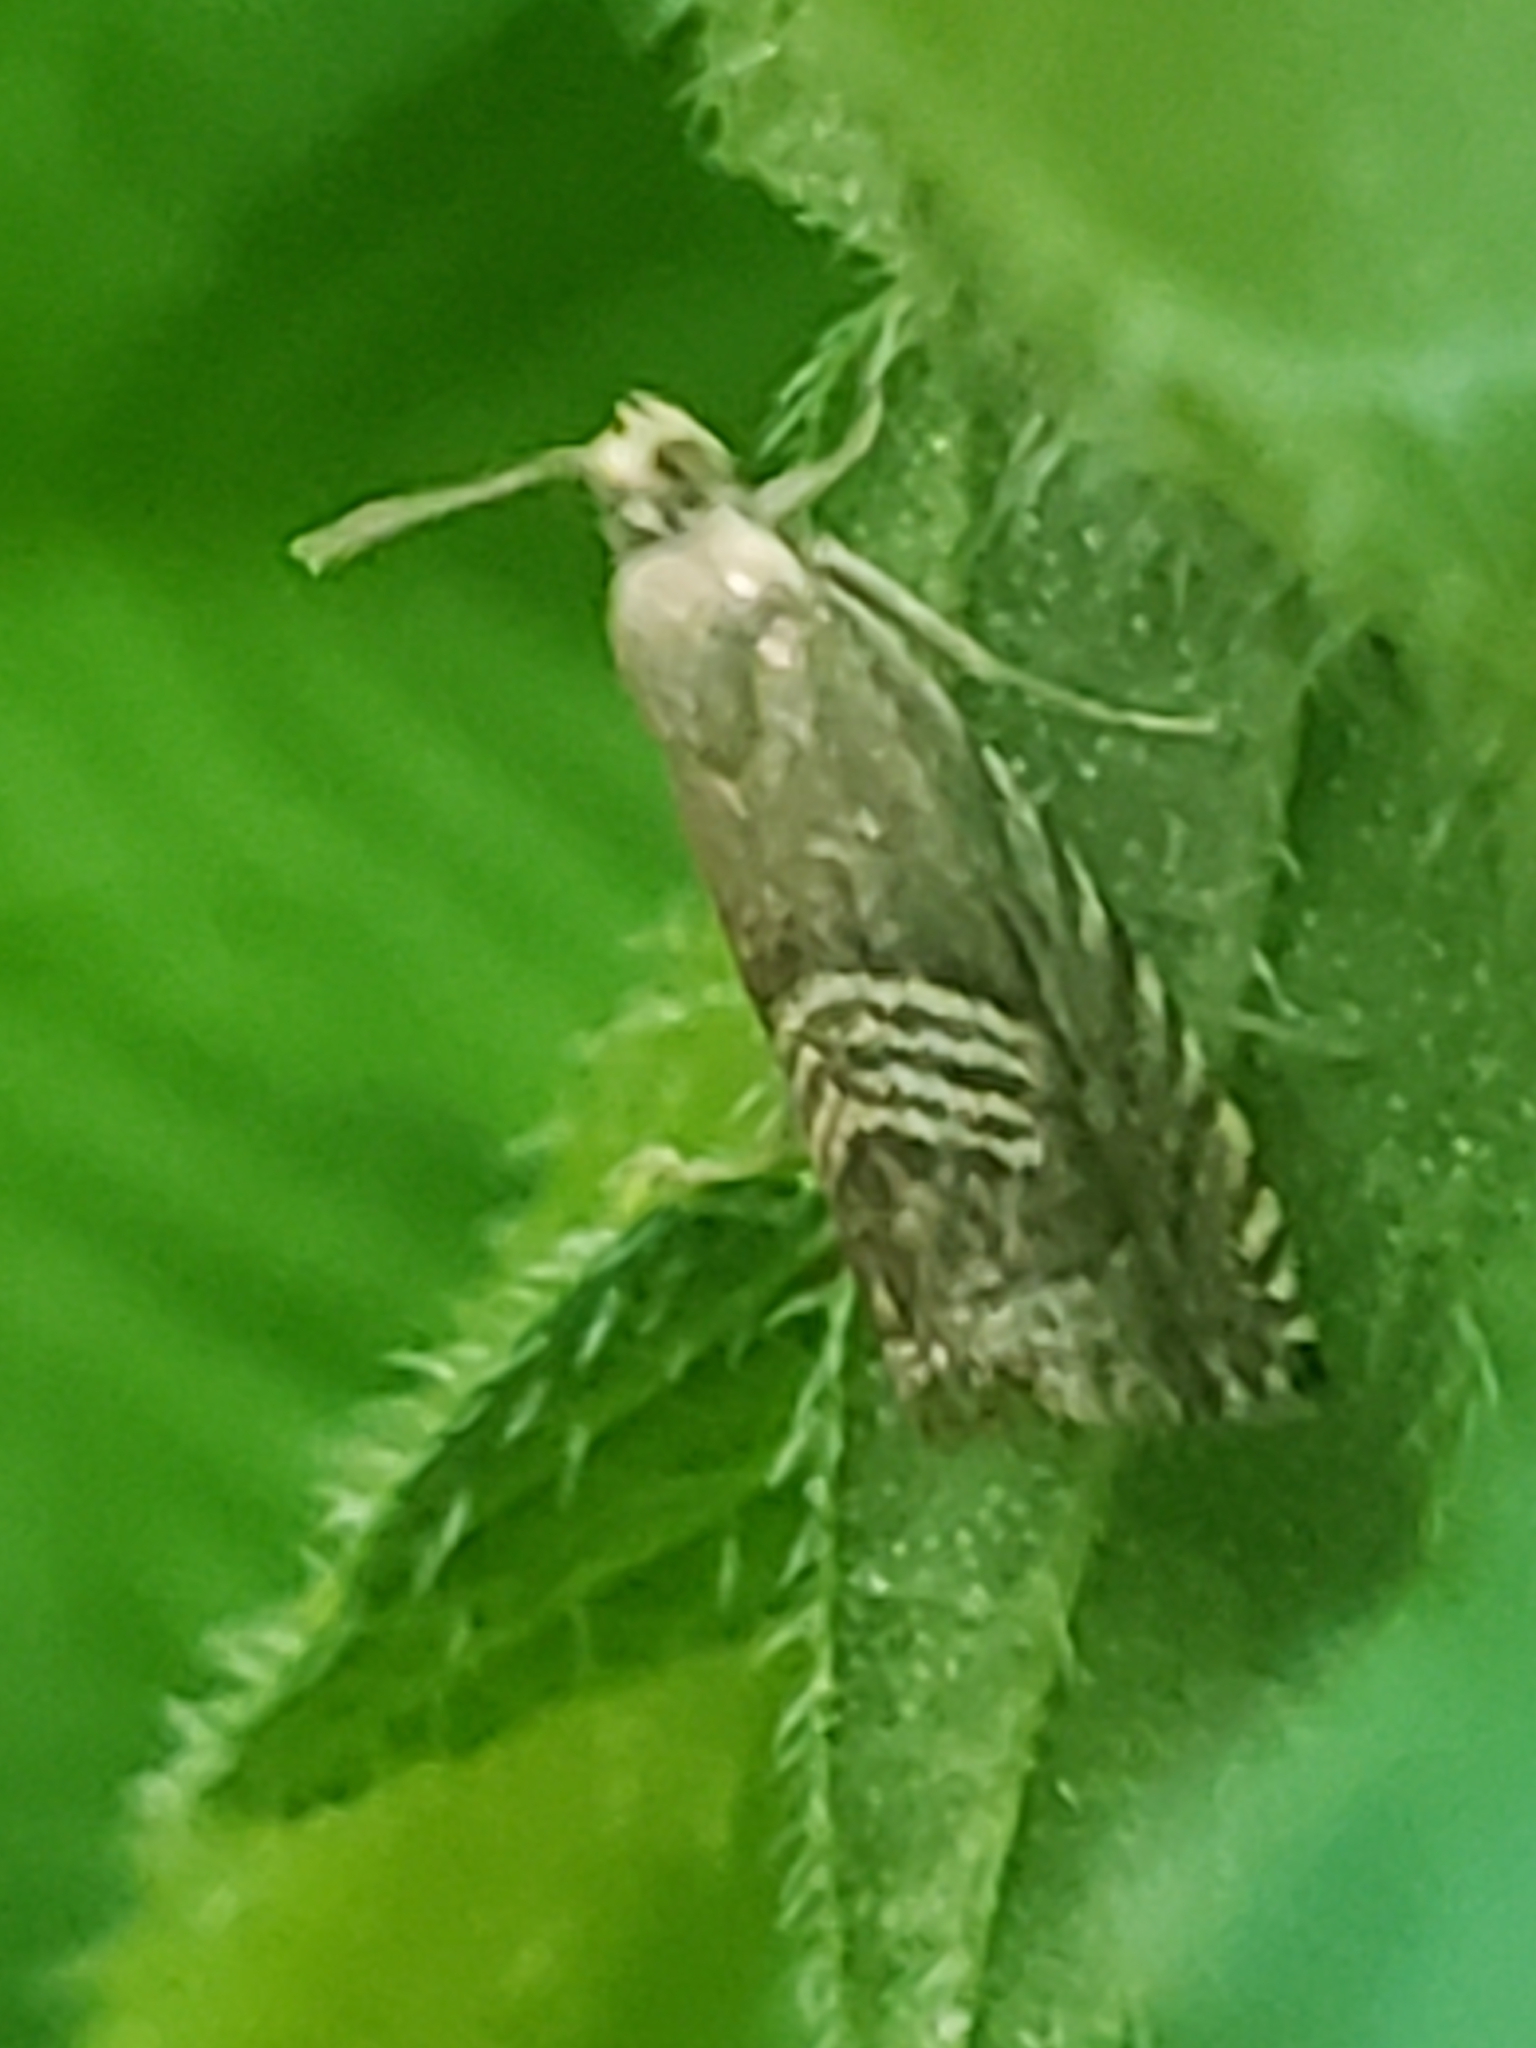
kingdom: Animalia
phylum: Arthropoda
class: Insecta
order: Lepidoptera
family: Tortricidae
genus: Grapholita
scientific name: Grapholita delineana
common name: Eurasian hemp moth
